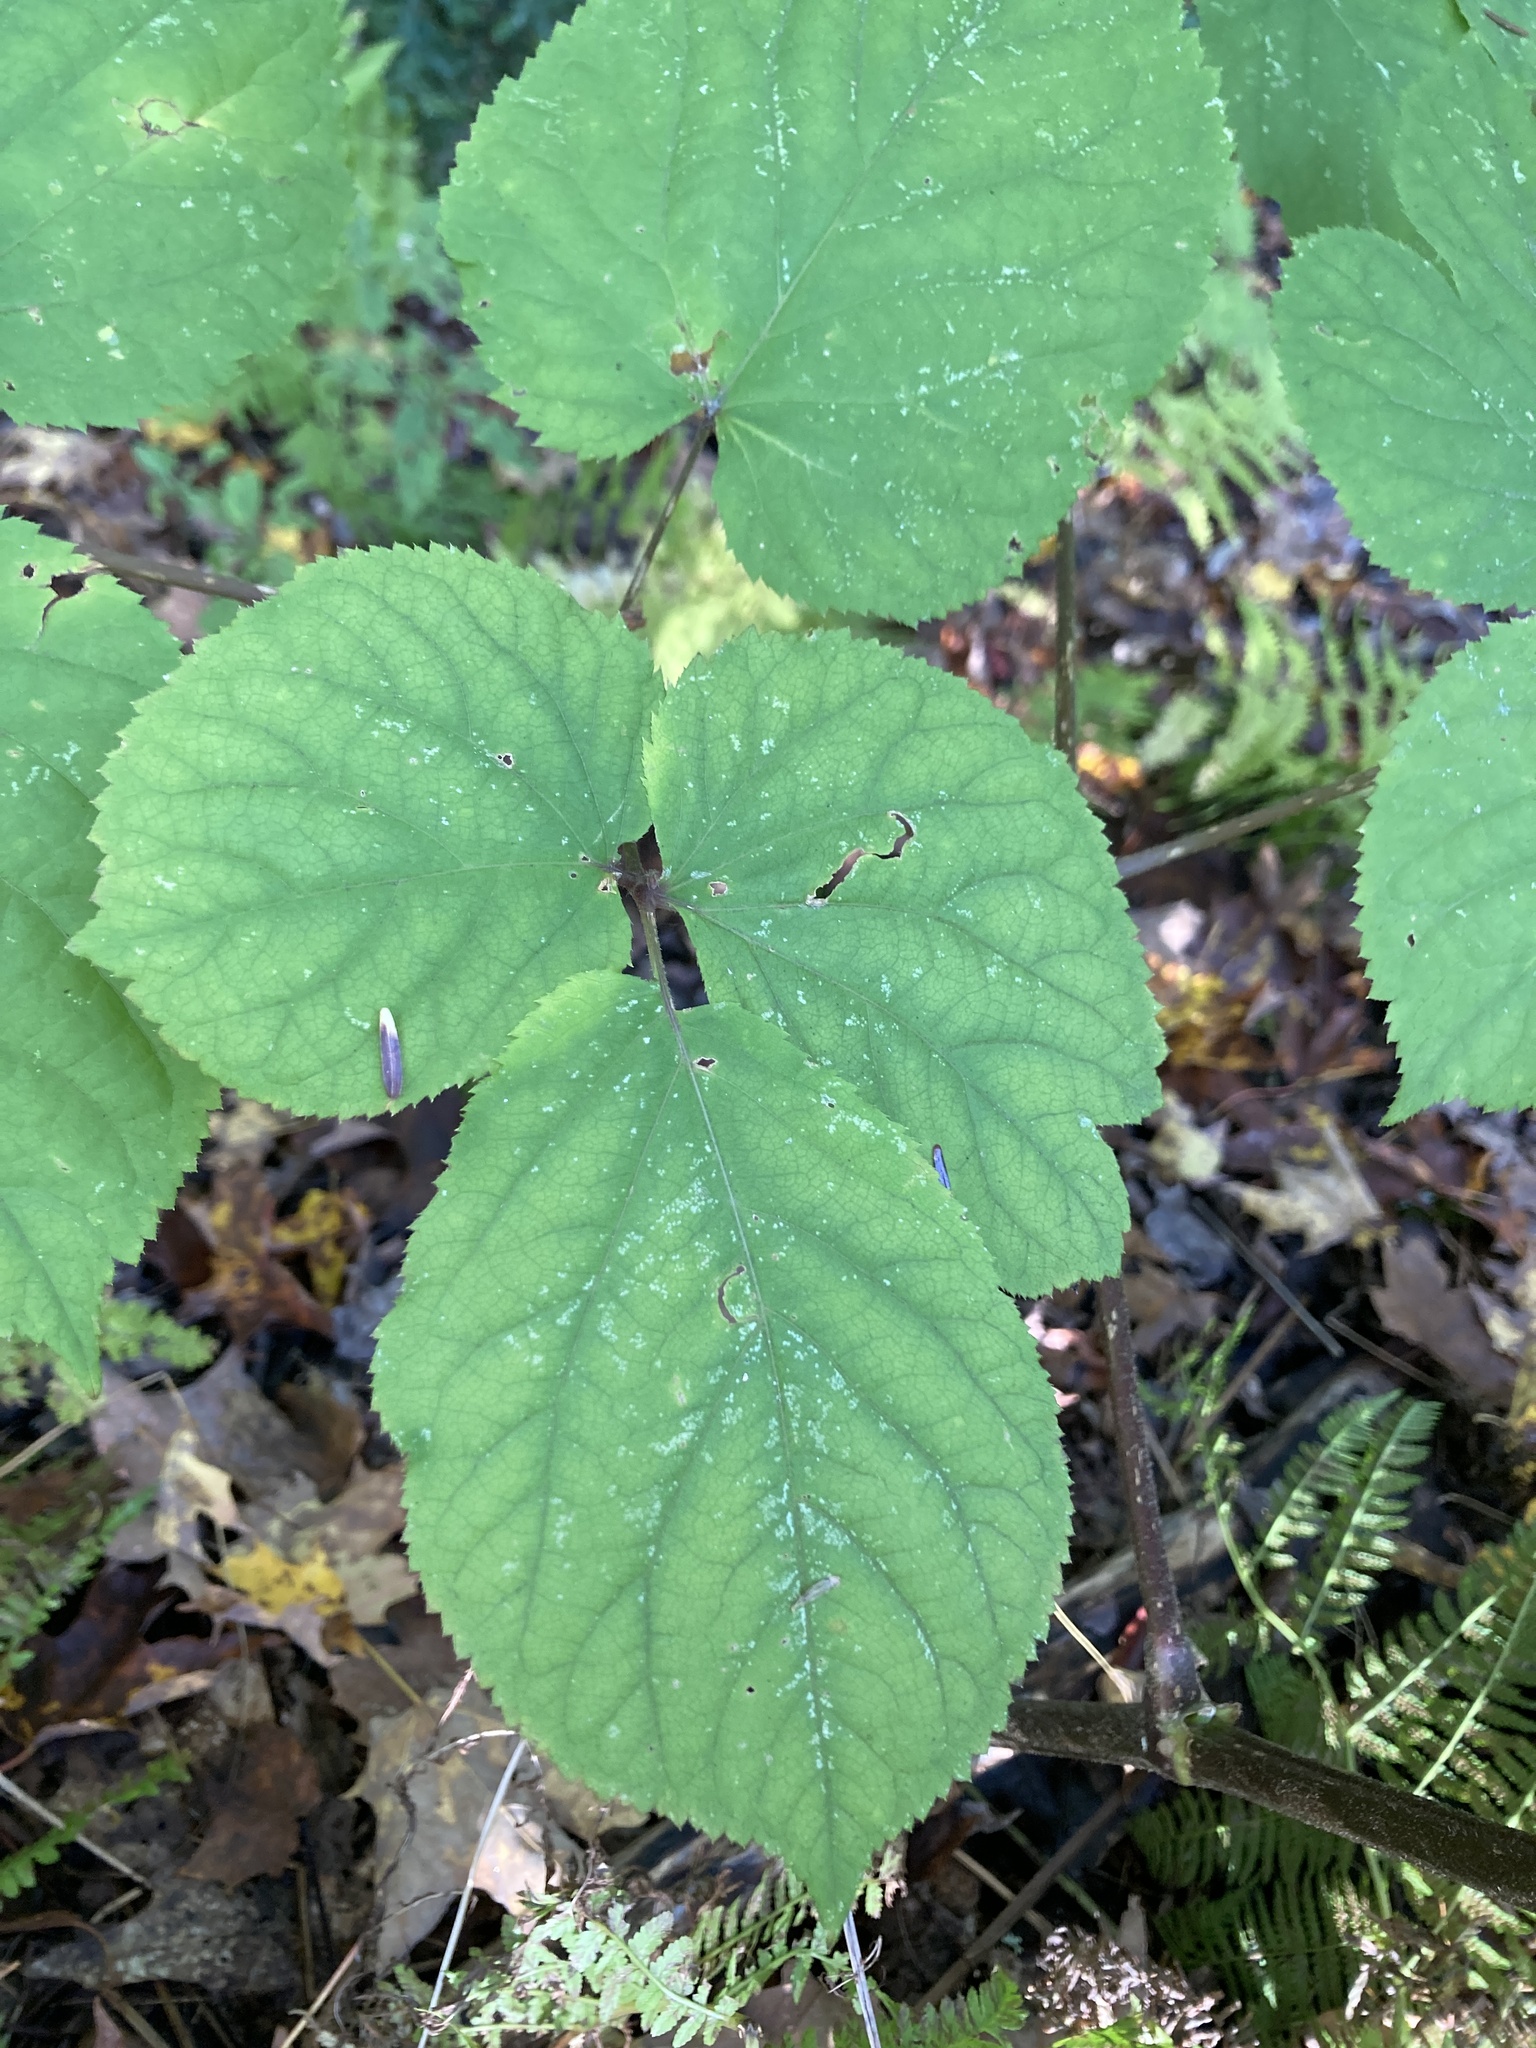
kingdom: Plantae
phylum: Tracheophyta
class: Magnoliopsida
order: Apiales
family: Araliaceae
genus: Aralia
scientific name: Aralia racemosa
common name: American-spikenard
